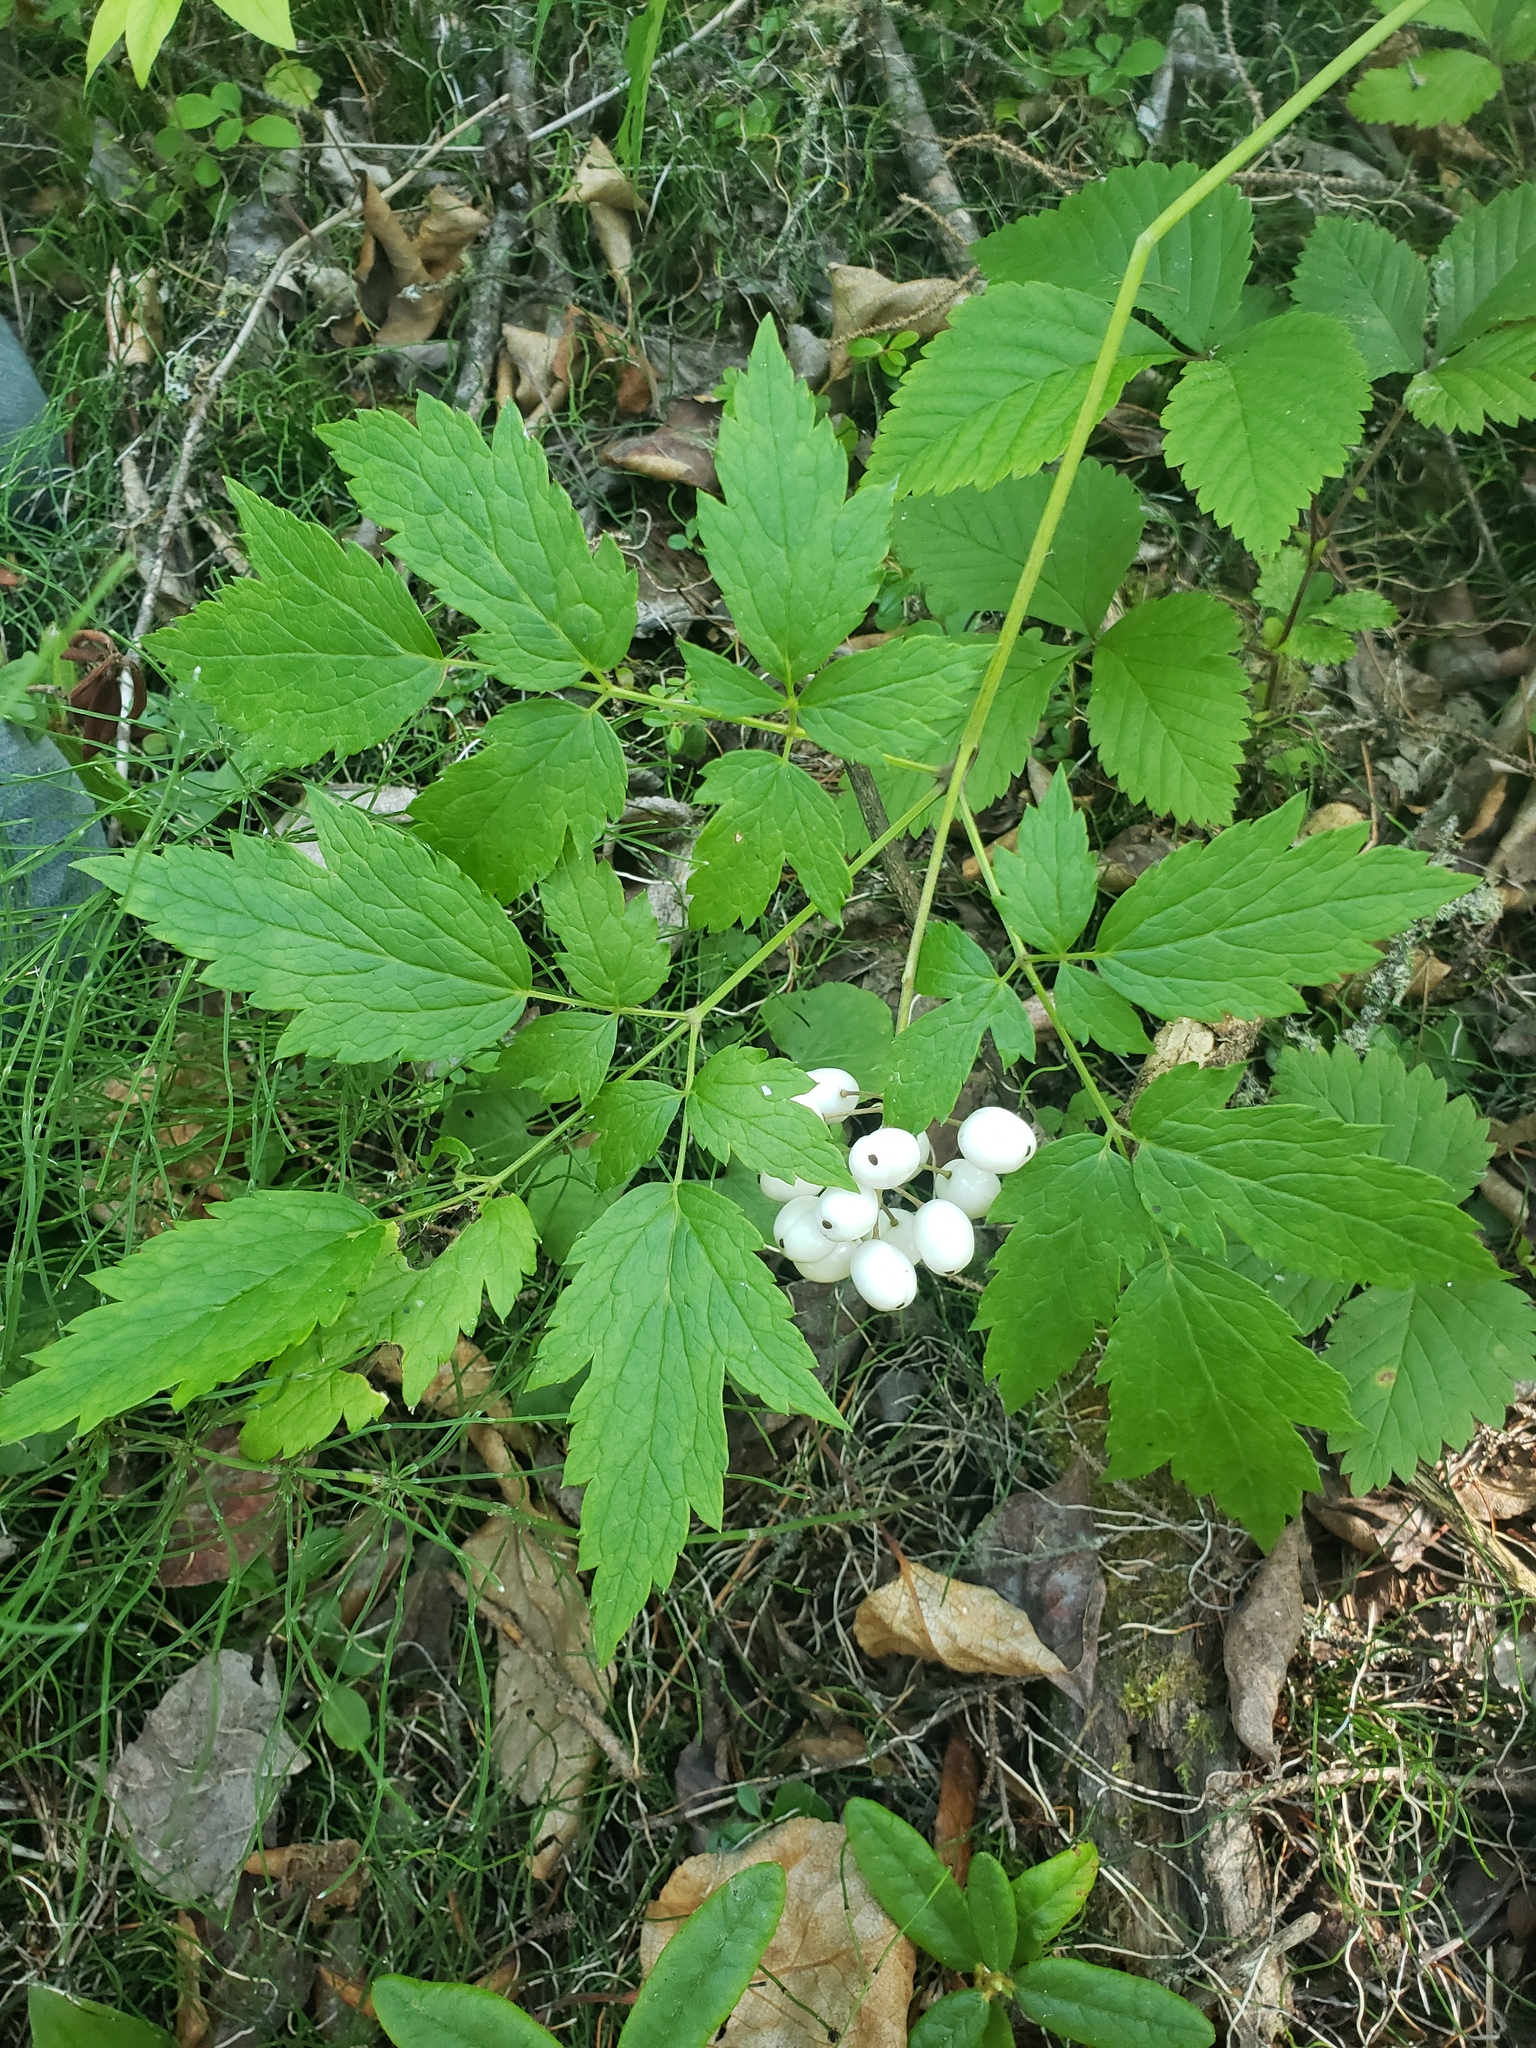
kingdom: Plantae
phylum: Tracheophyta
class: Magnoliopsida
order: Ranunculales
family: Ranunculaceae
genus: Actaea
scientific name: Actaea rubra
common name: Red baneberry
